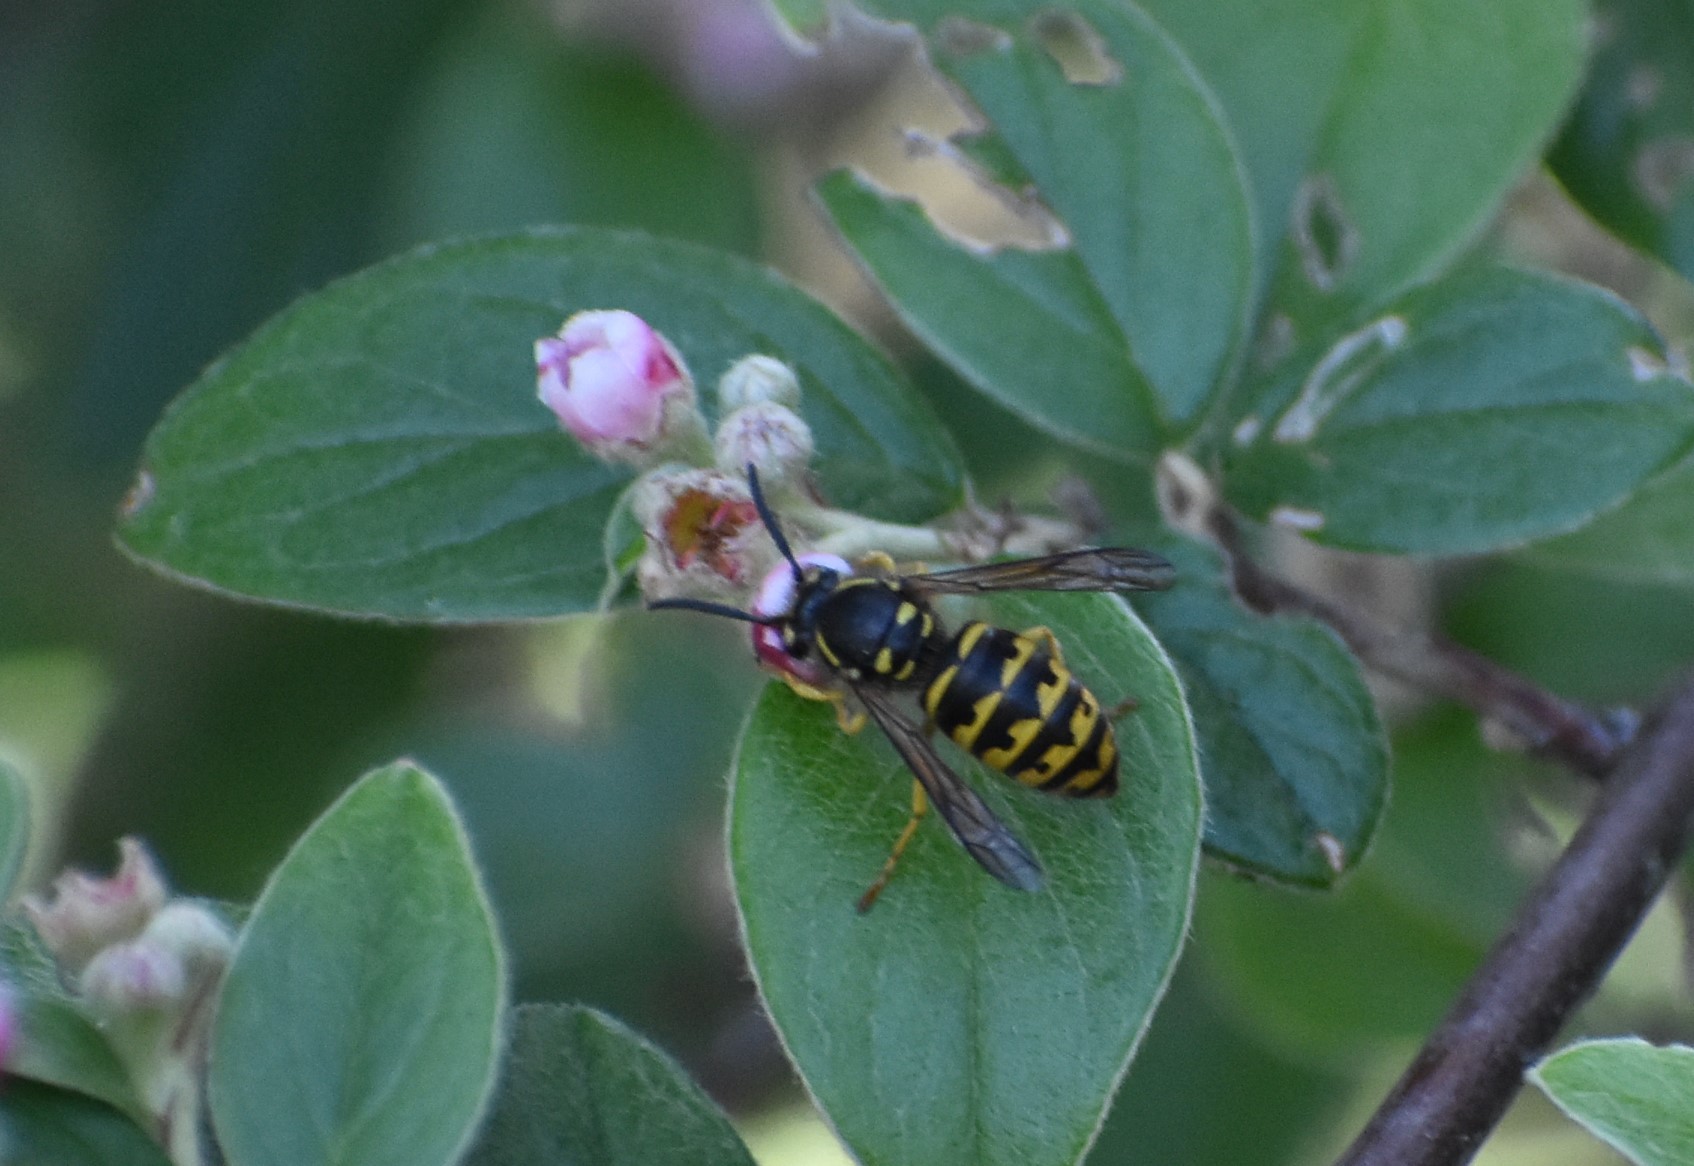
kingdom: Animalia
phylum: Arthropoda
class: Insecta
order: Hymenoptera
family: Vespidae
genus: Dolichovespula
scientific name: Dolichovespula arenaria
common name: Aerial yellowjacket
